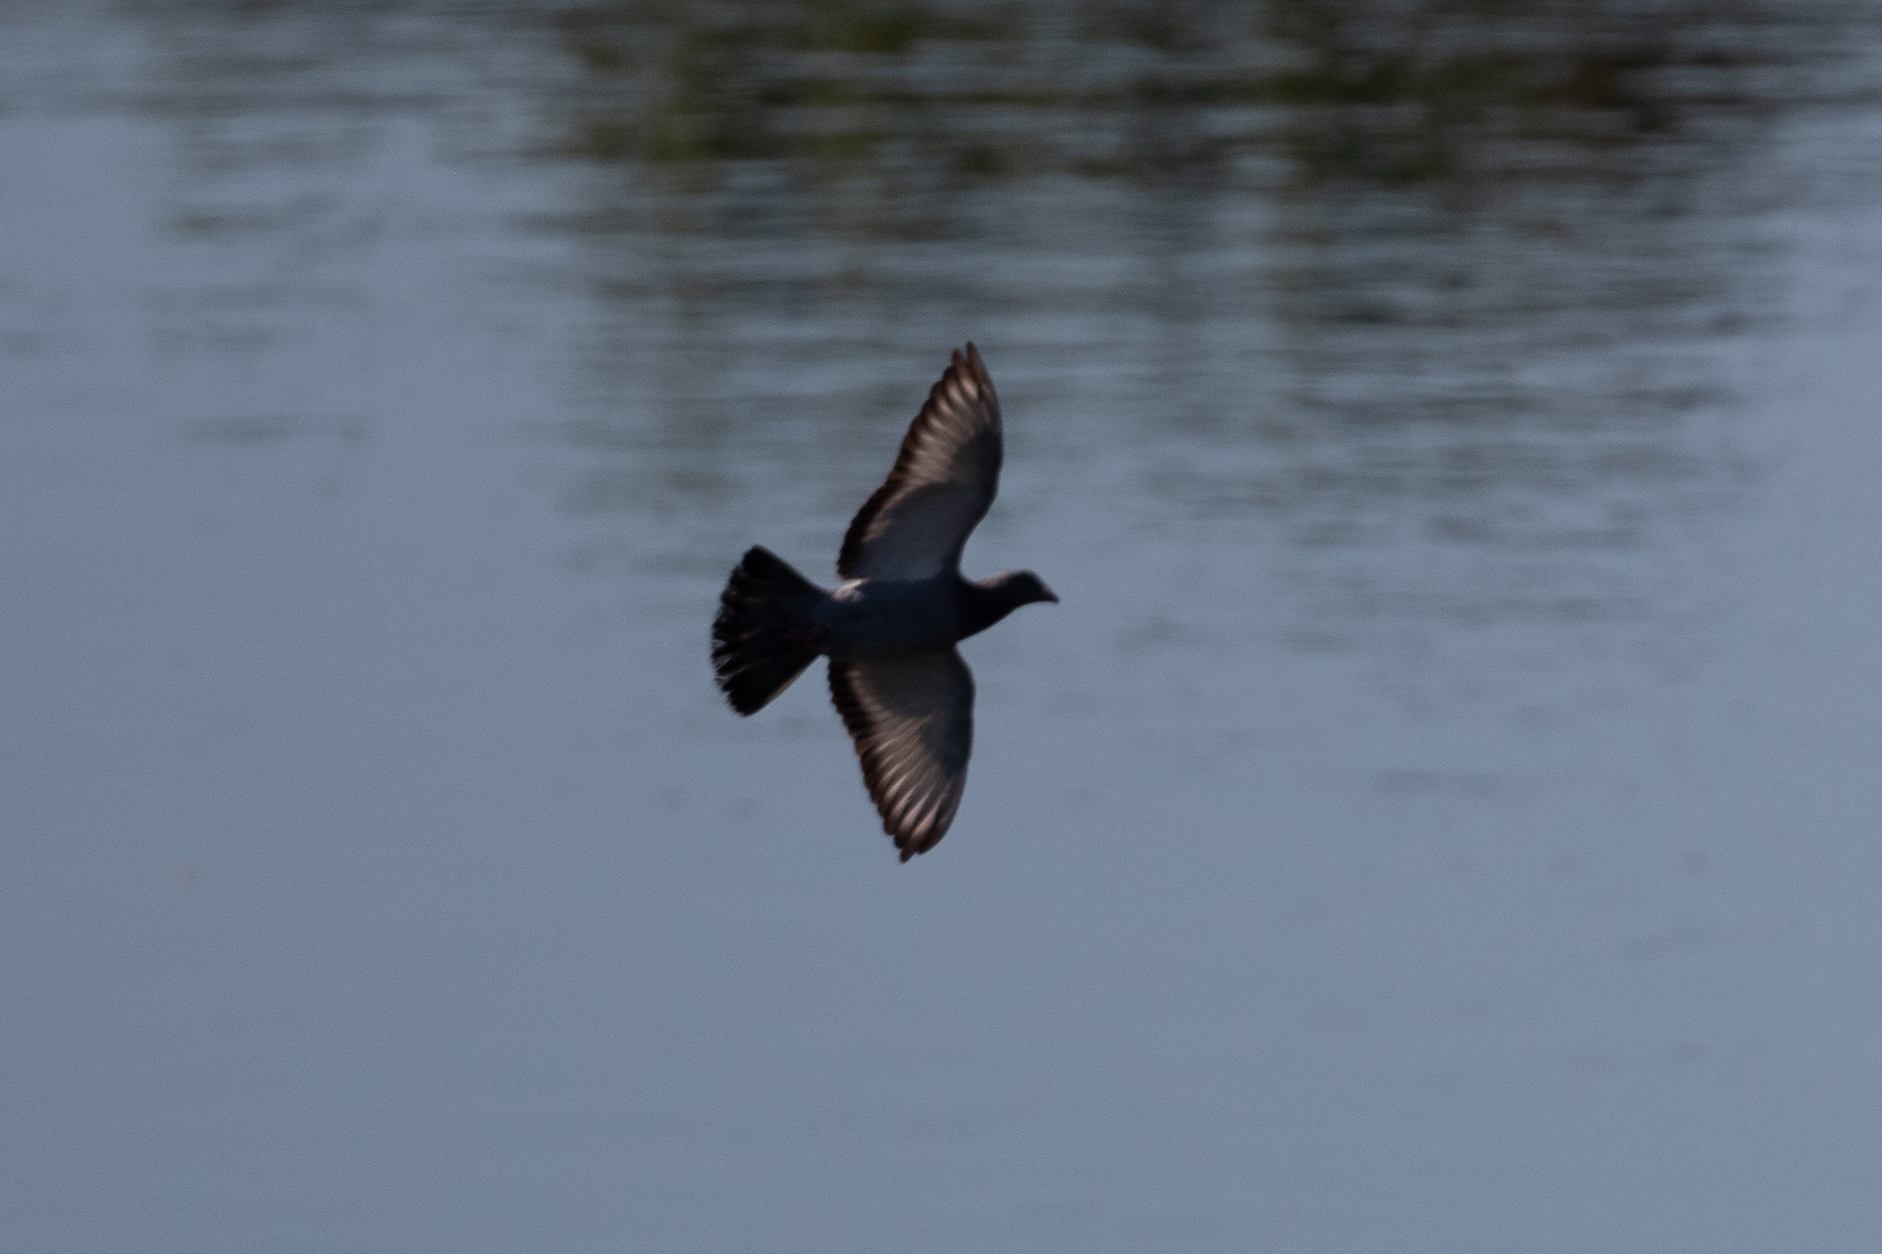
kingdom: Animalia
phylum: Chordata
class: Aves
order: Columbiformes
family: Columbidae
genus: Columba
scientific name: Columba livia
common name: Rock pigeon
